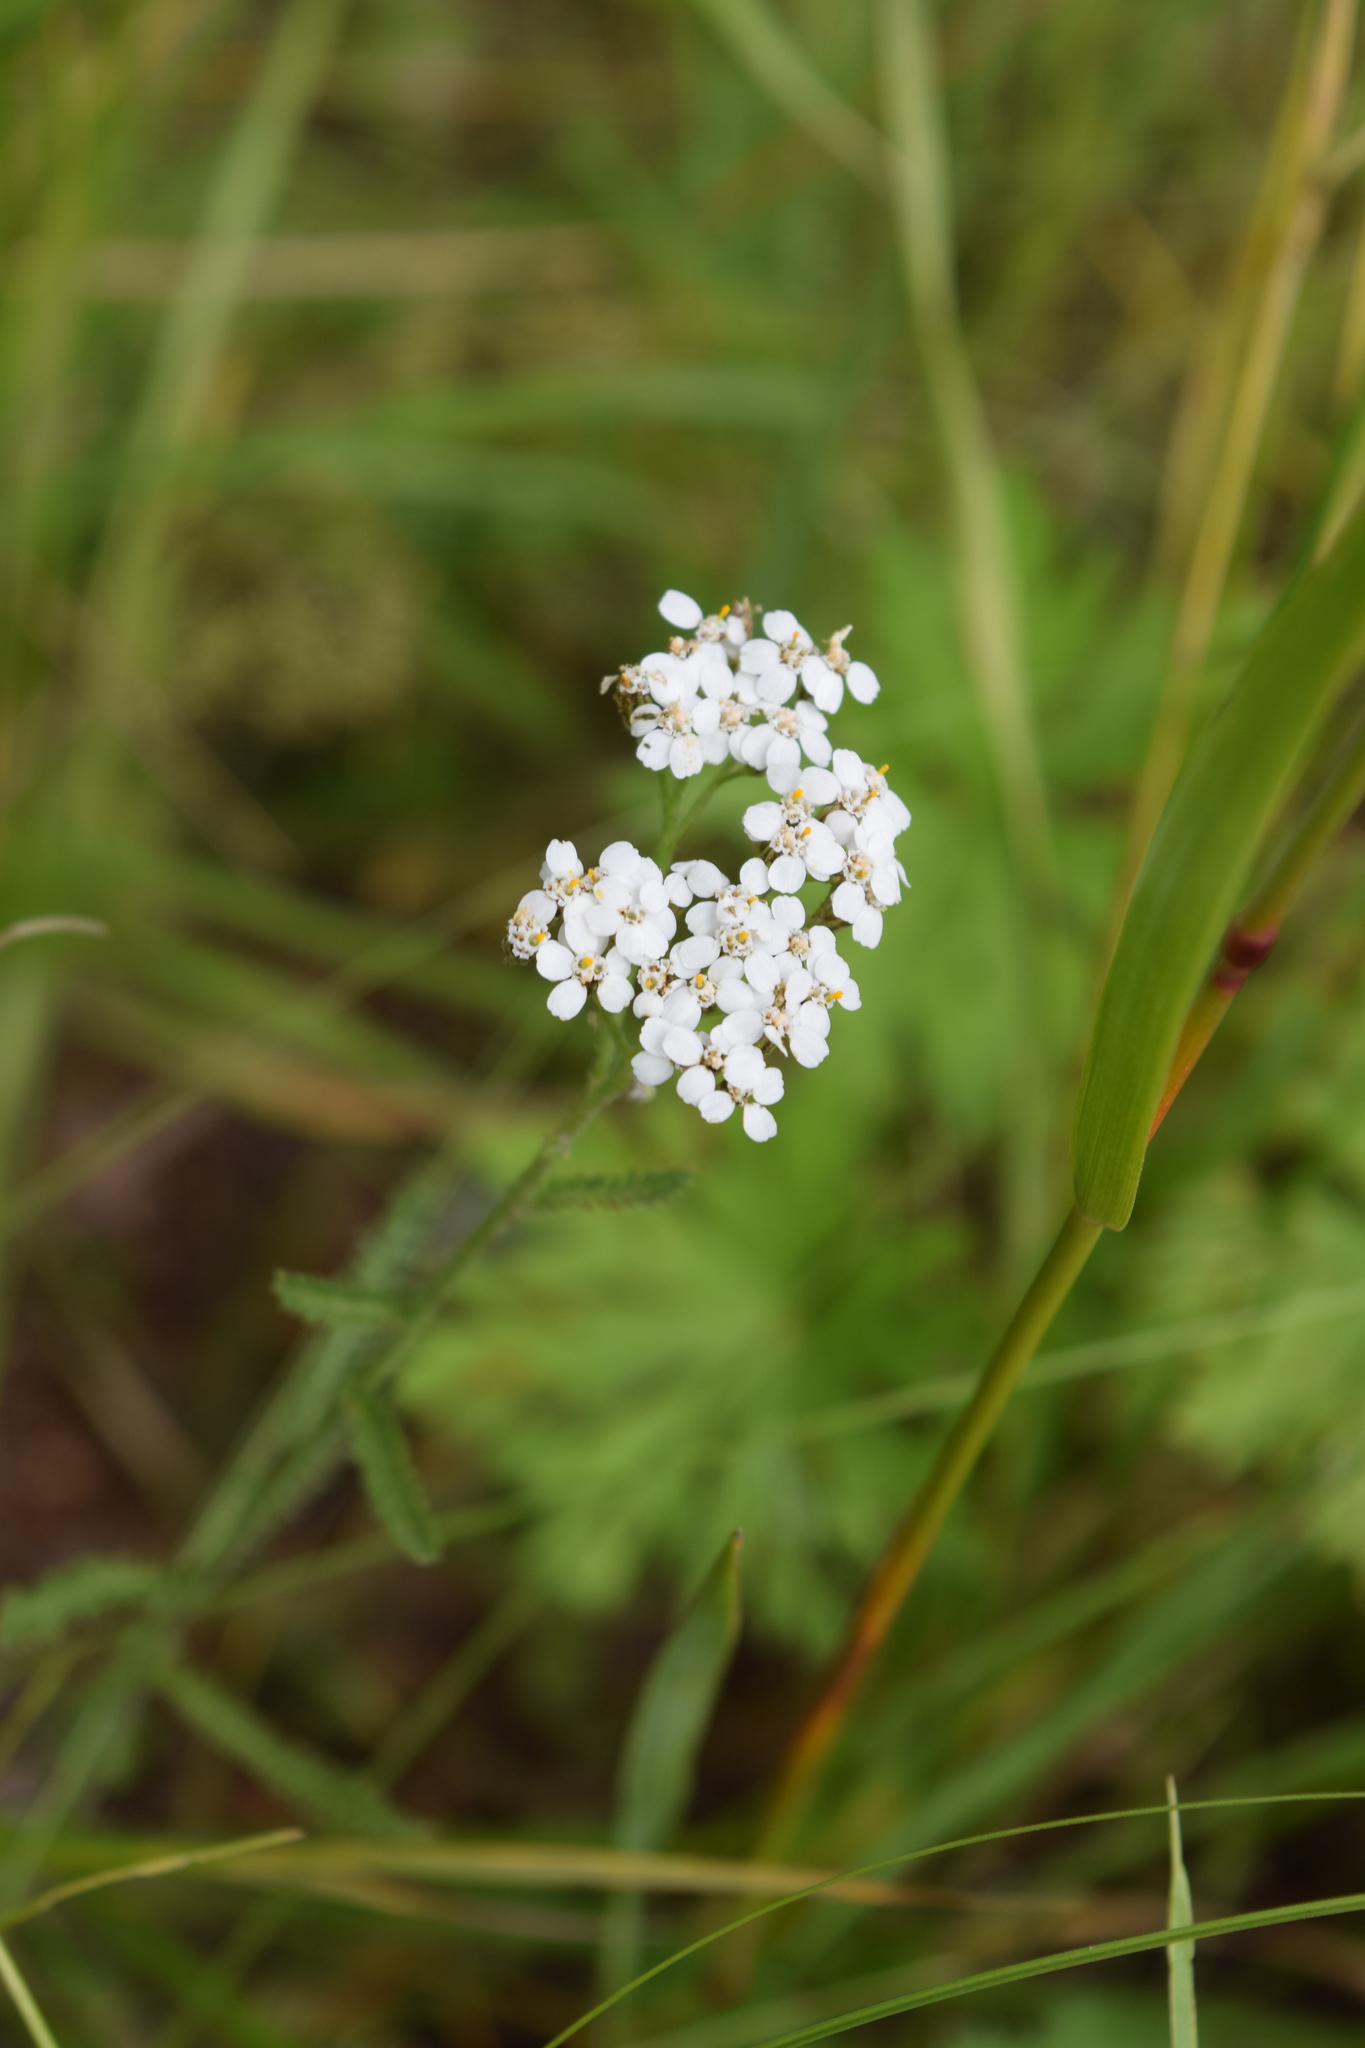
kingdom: Plantae
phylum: Tracheophyta
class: Magnoliopsida
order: Asterales
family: Asteraceae
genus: Achillea
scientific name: Achillea millefolium
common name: Yarrow
